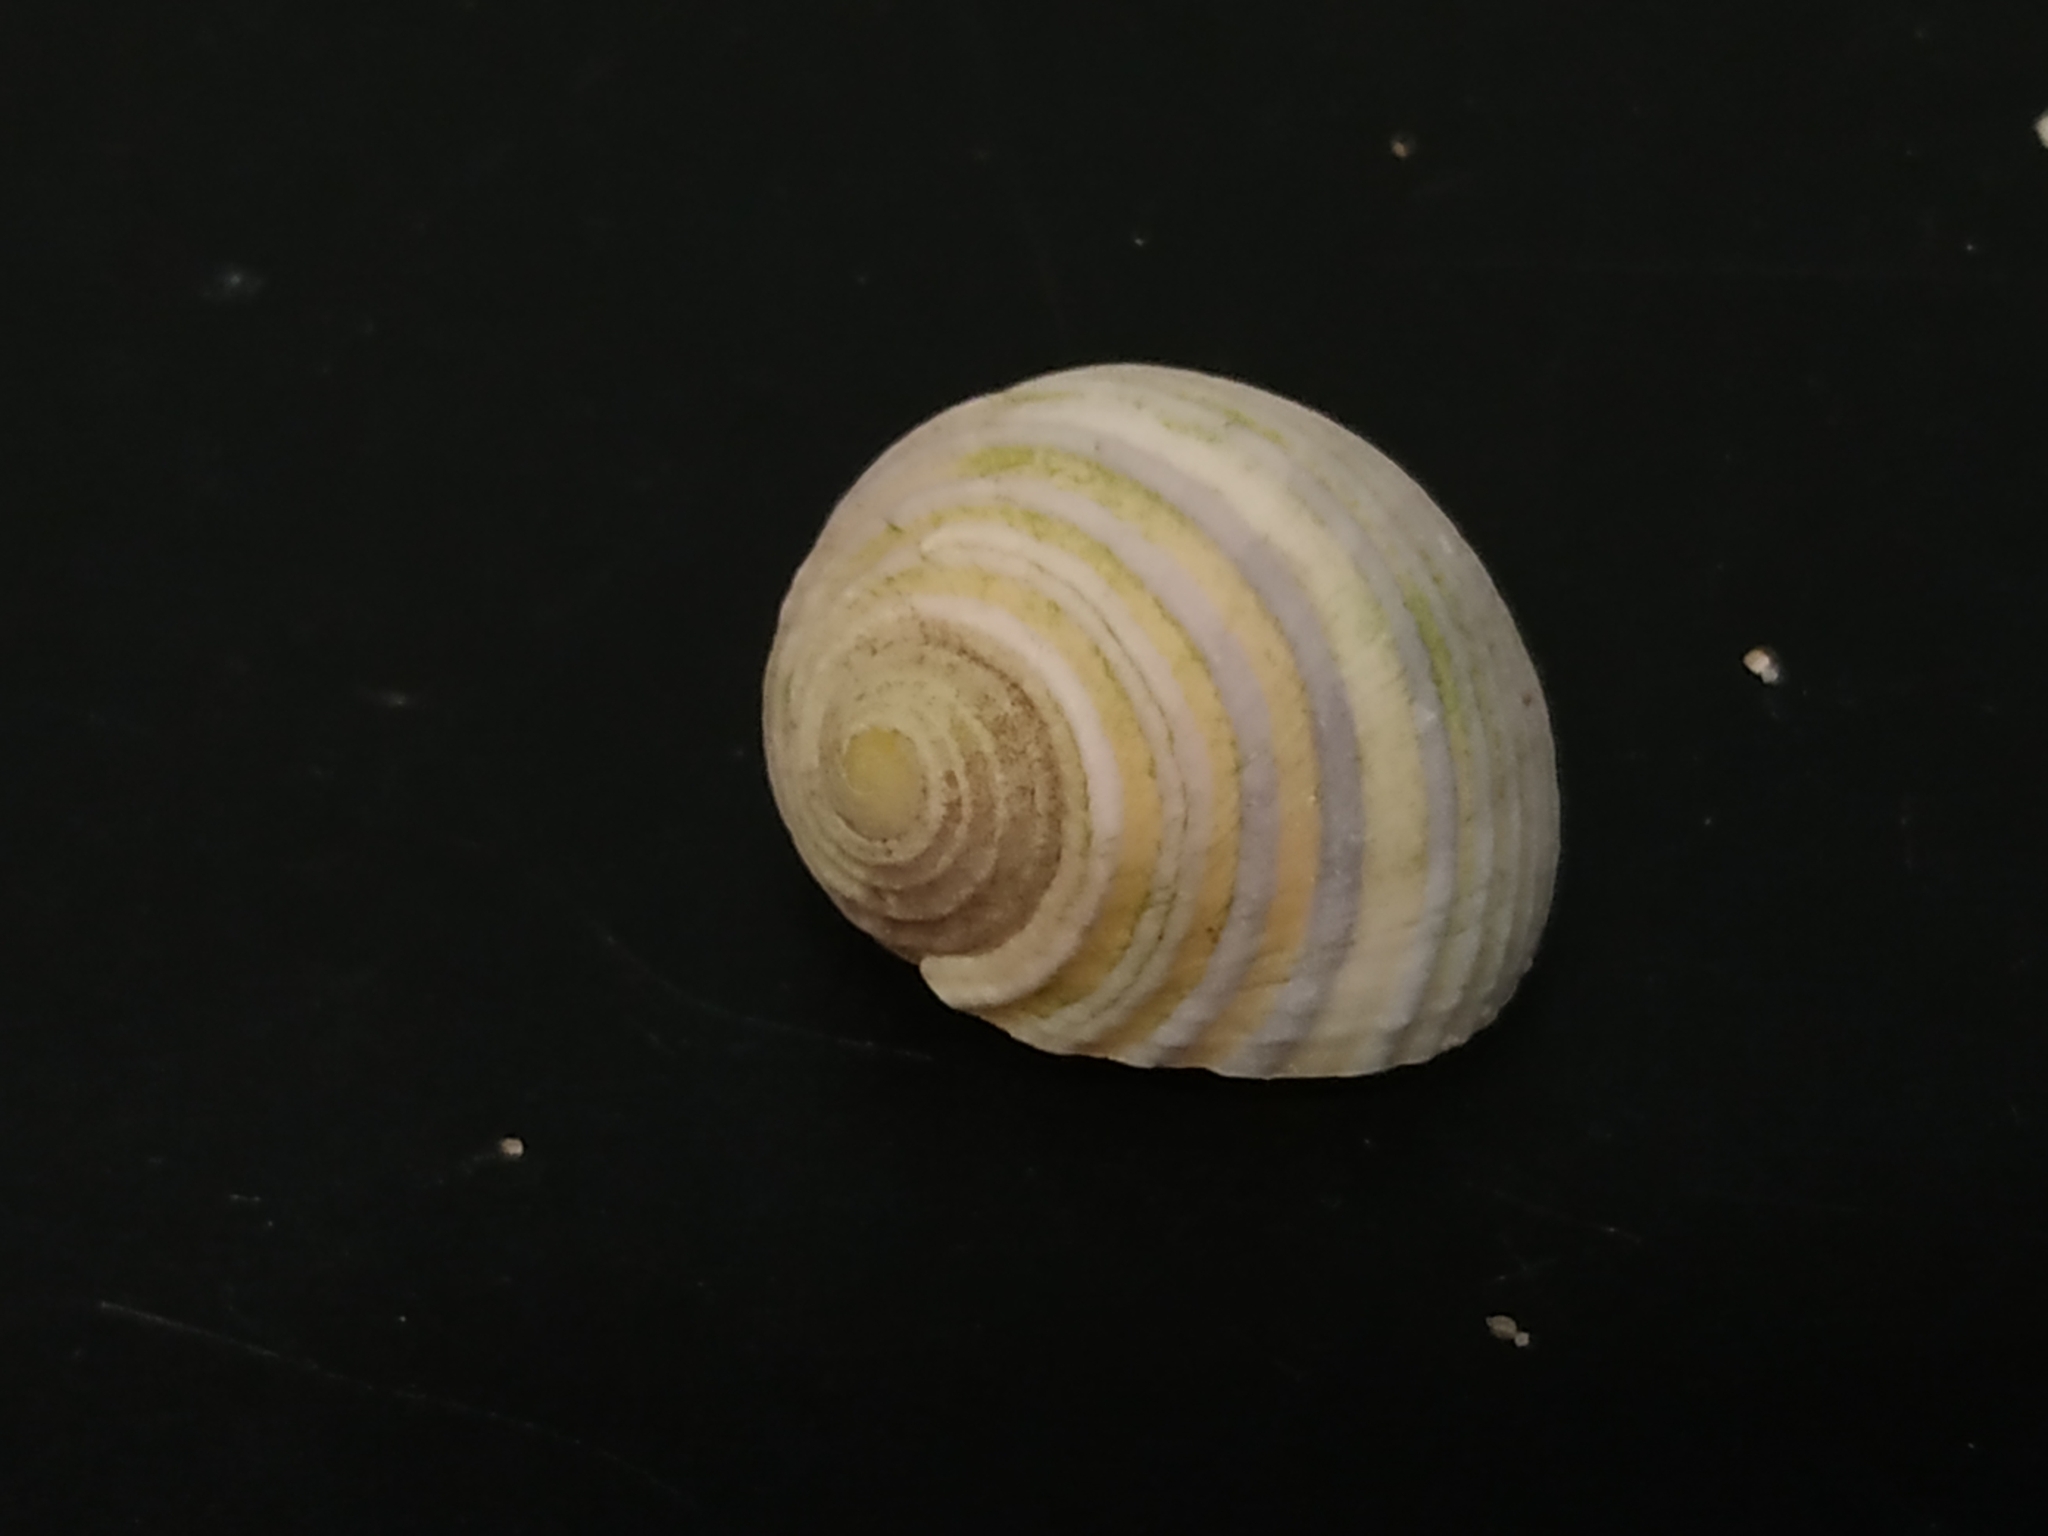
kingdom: Animalia
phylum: Mollusca
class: Gastropoda
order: Cycloneritida
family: Neritidae
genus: Nerita
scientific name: Nerita plicata
